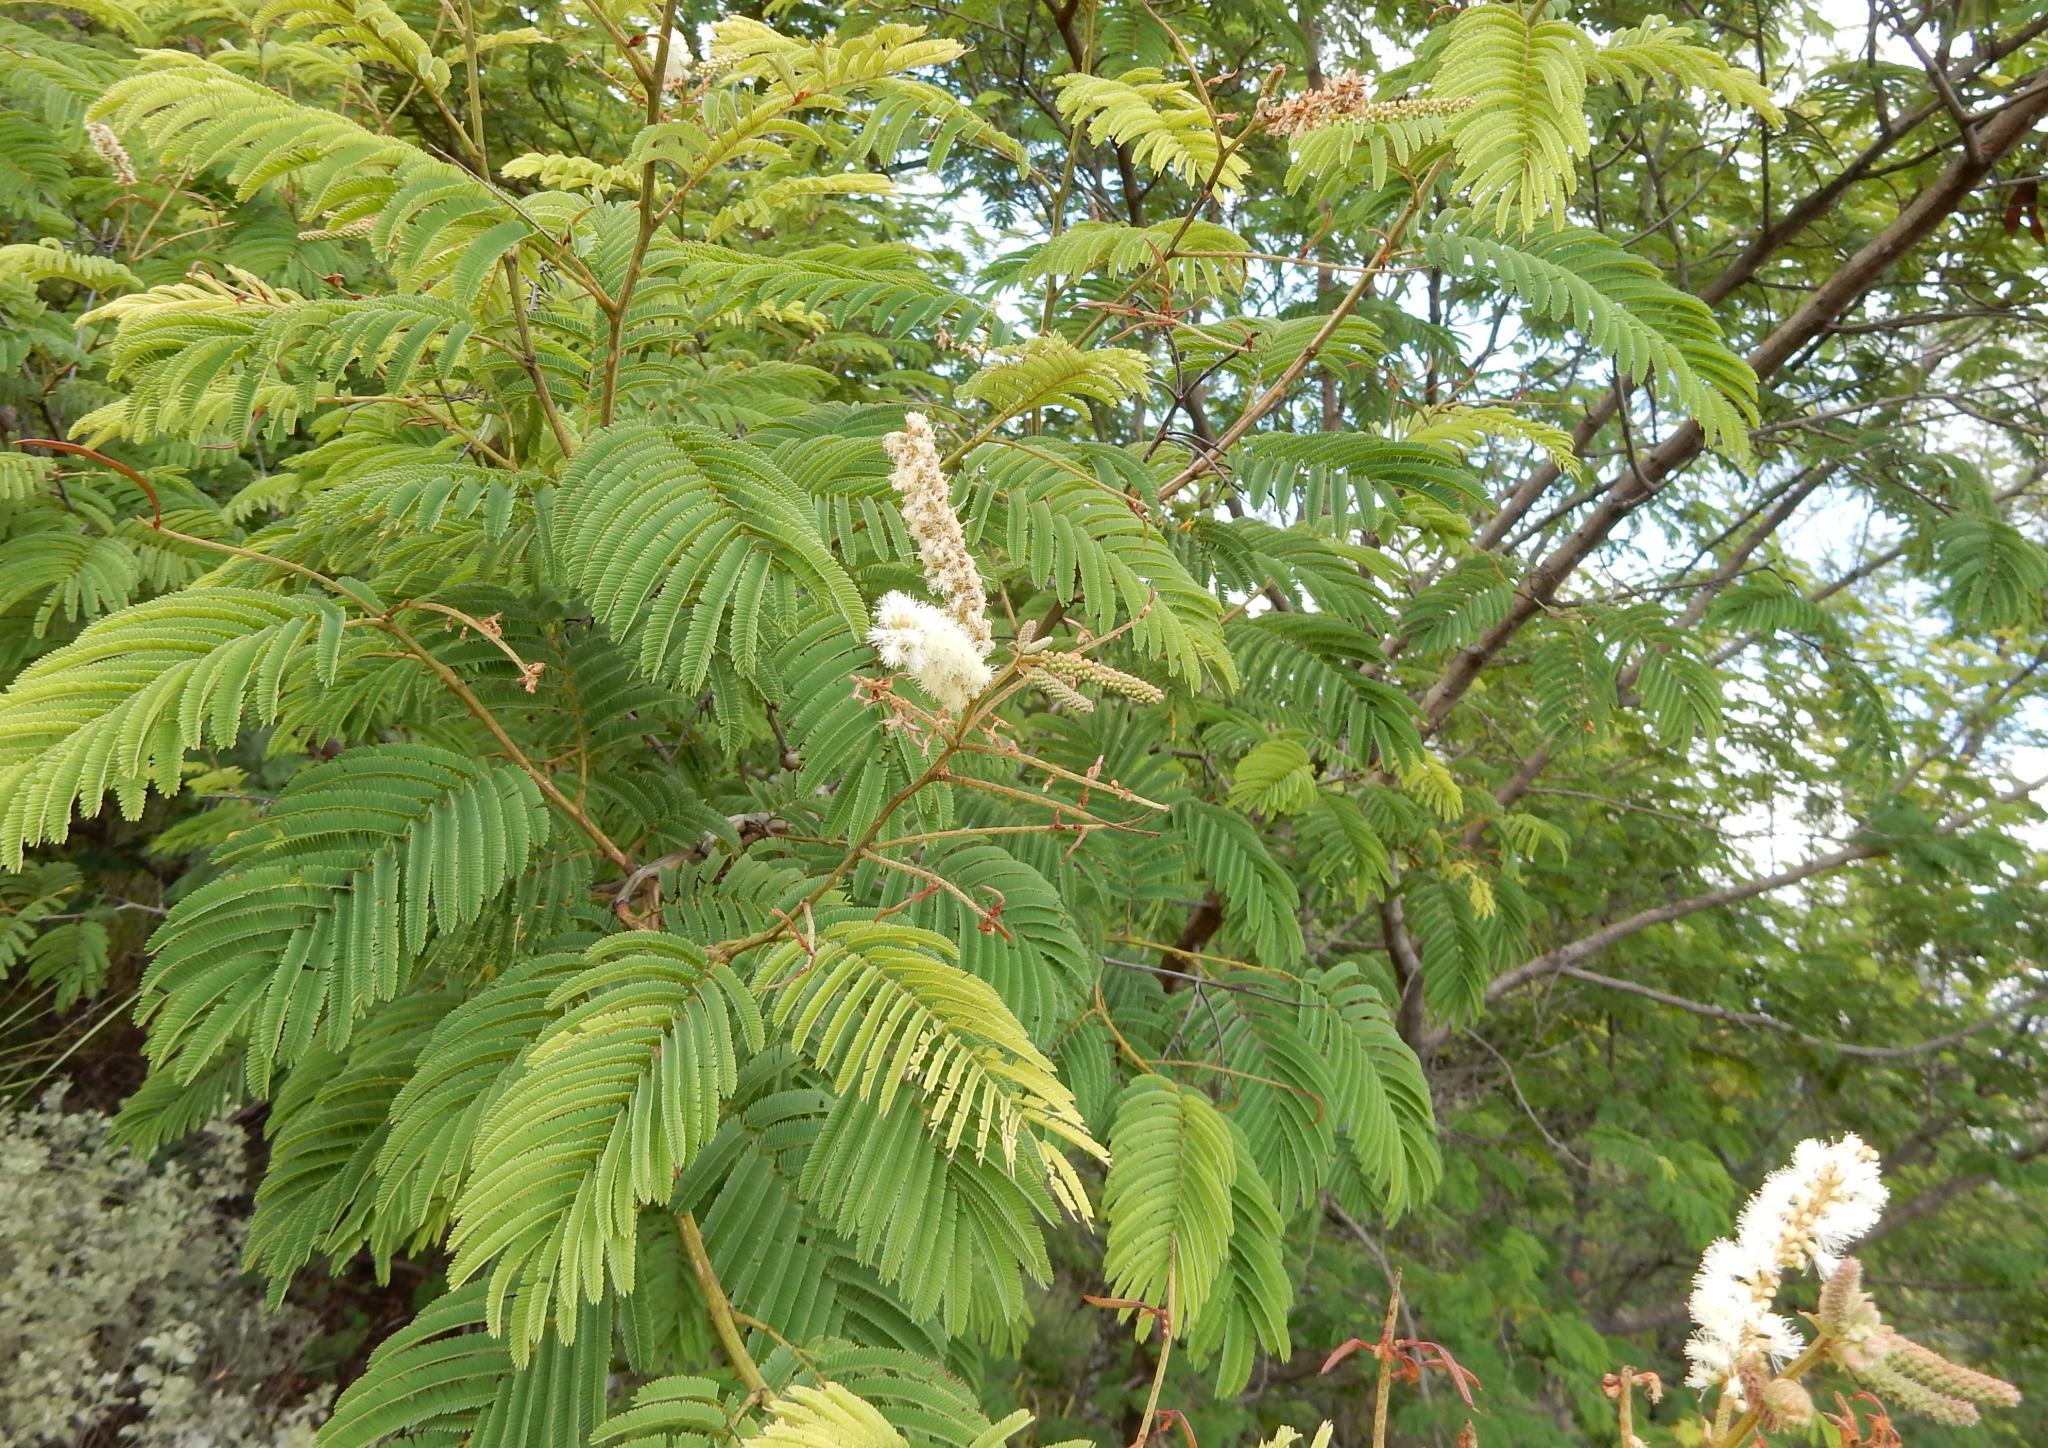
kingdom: Plantae
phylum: Tracheophyta
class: Magnoliopsida
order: Fabales
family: Fabaceae
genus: Senegalia
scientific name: Senegalia caffra
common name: Cat thorn
